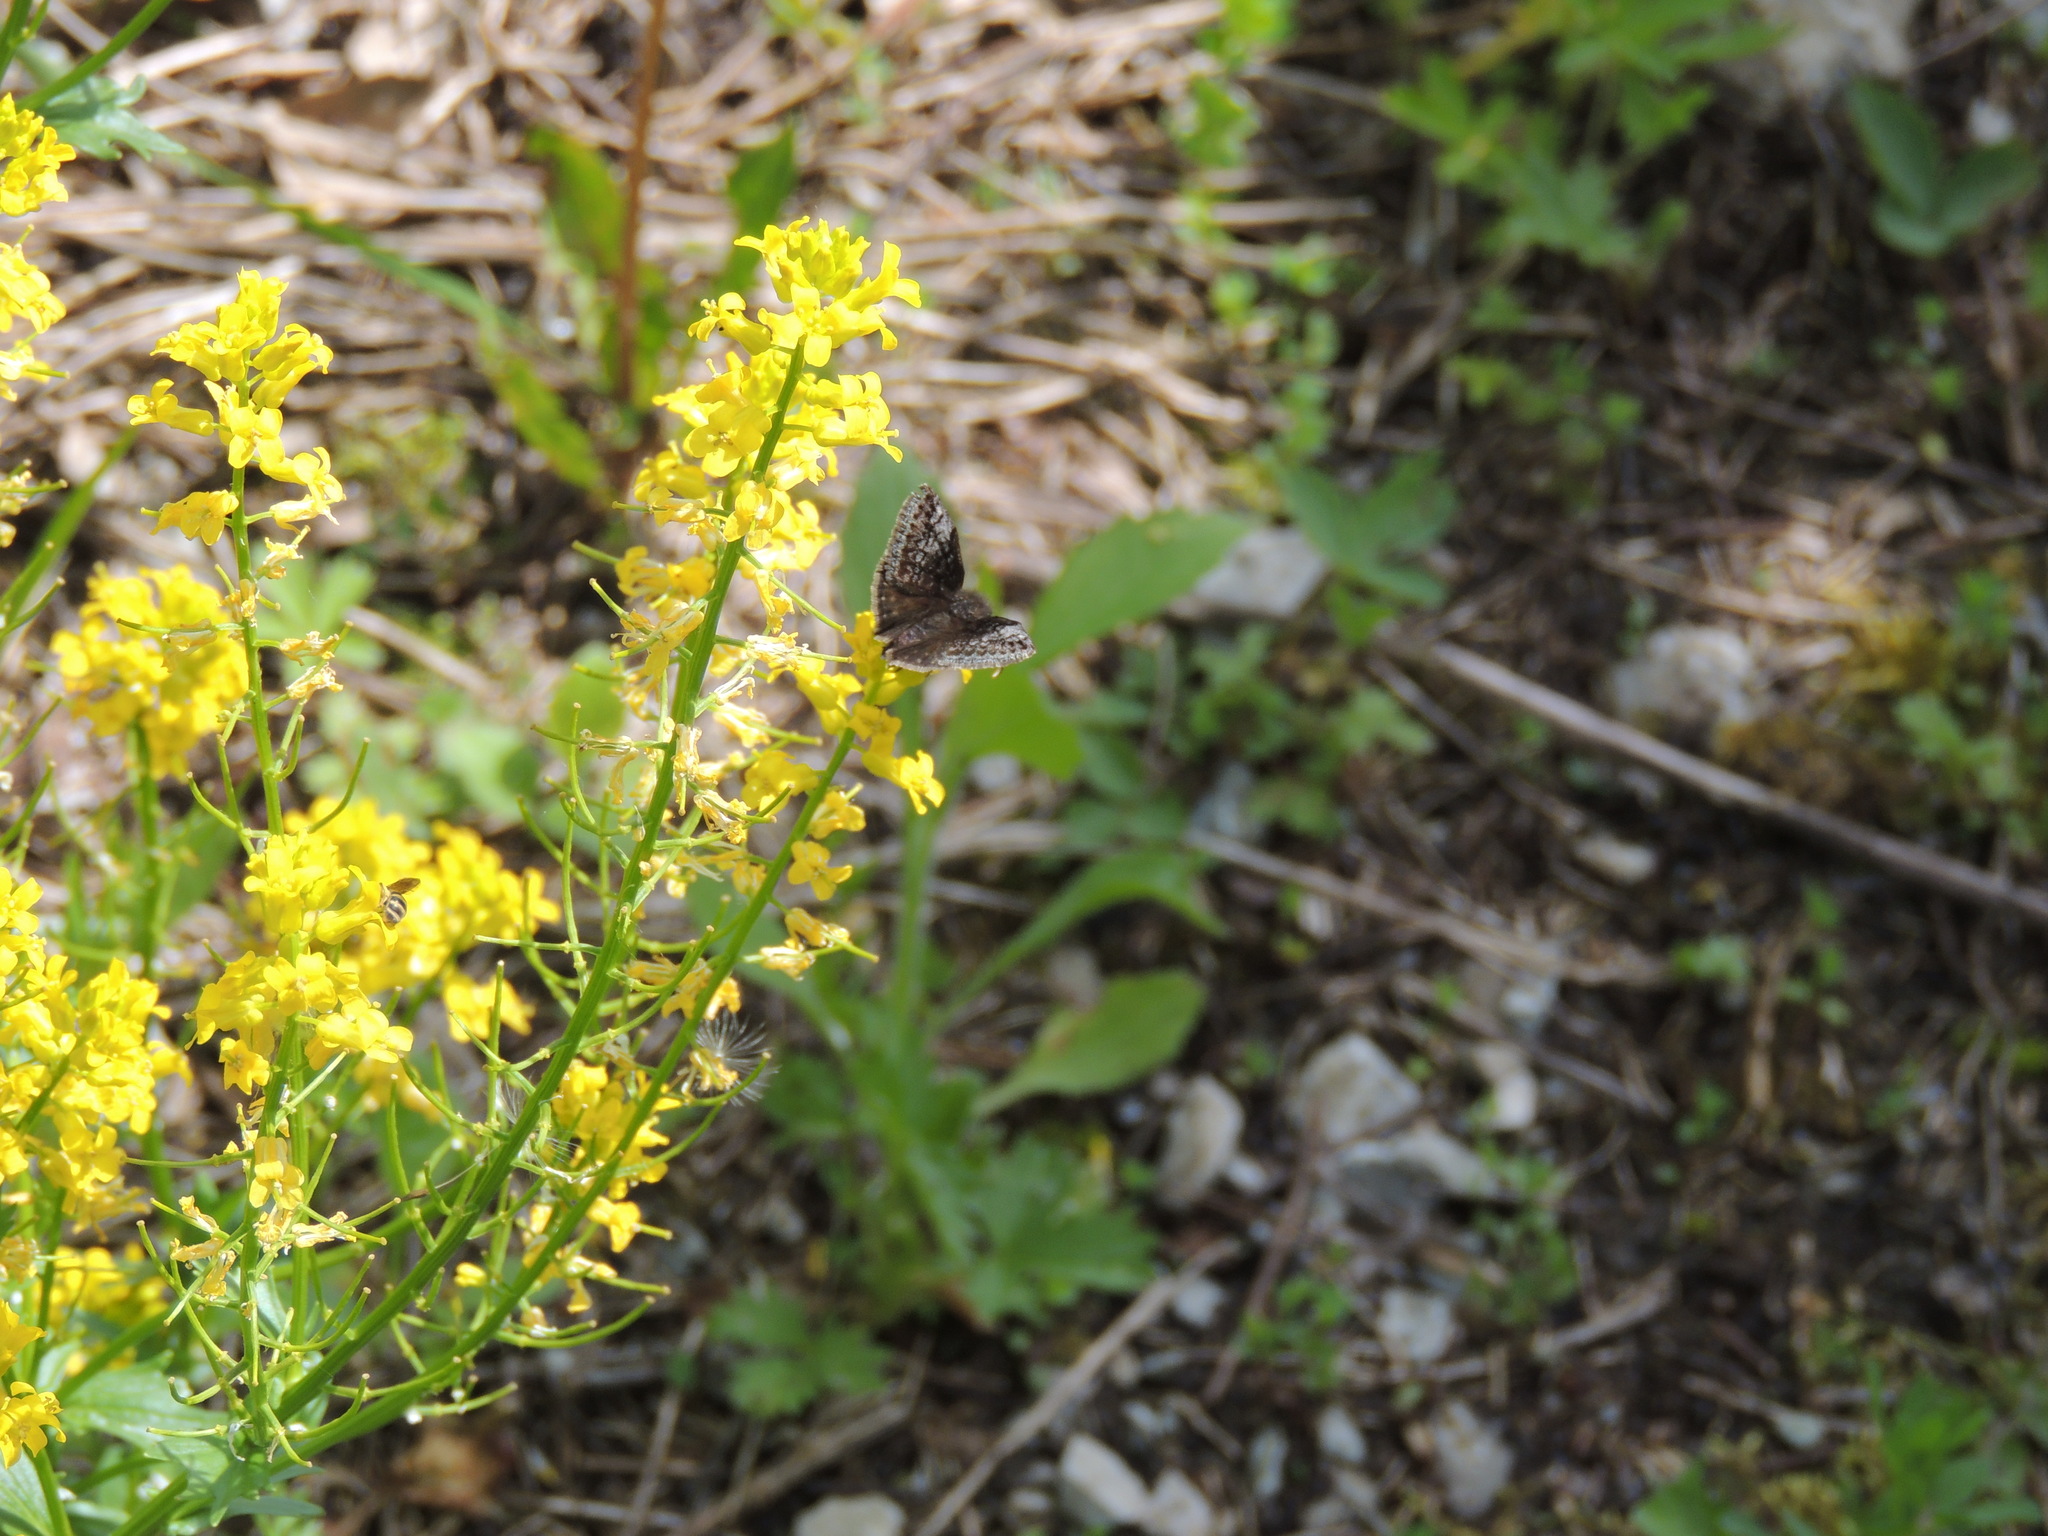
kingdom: Animalia
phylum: Arthropoda
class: Insecta
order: Lepidoptera
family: Hesperiidae
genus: Erynnis
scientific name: Erynnis icelus
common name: Dreamy duskywing
